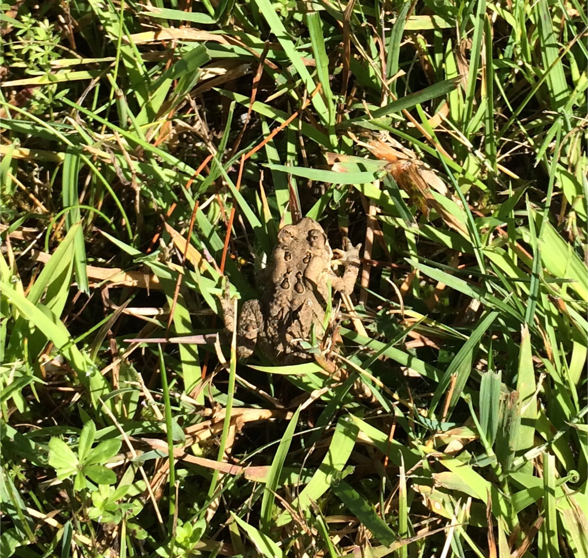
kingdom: Animalia
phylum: Chordata
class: Amphibia
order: Anura
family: Bufonidae
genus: Anaxyrus
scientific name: Anaxyrus americanus
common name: American toad
